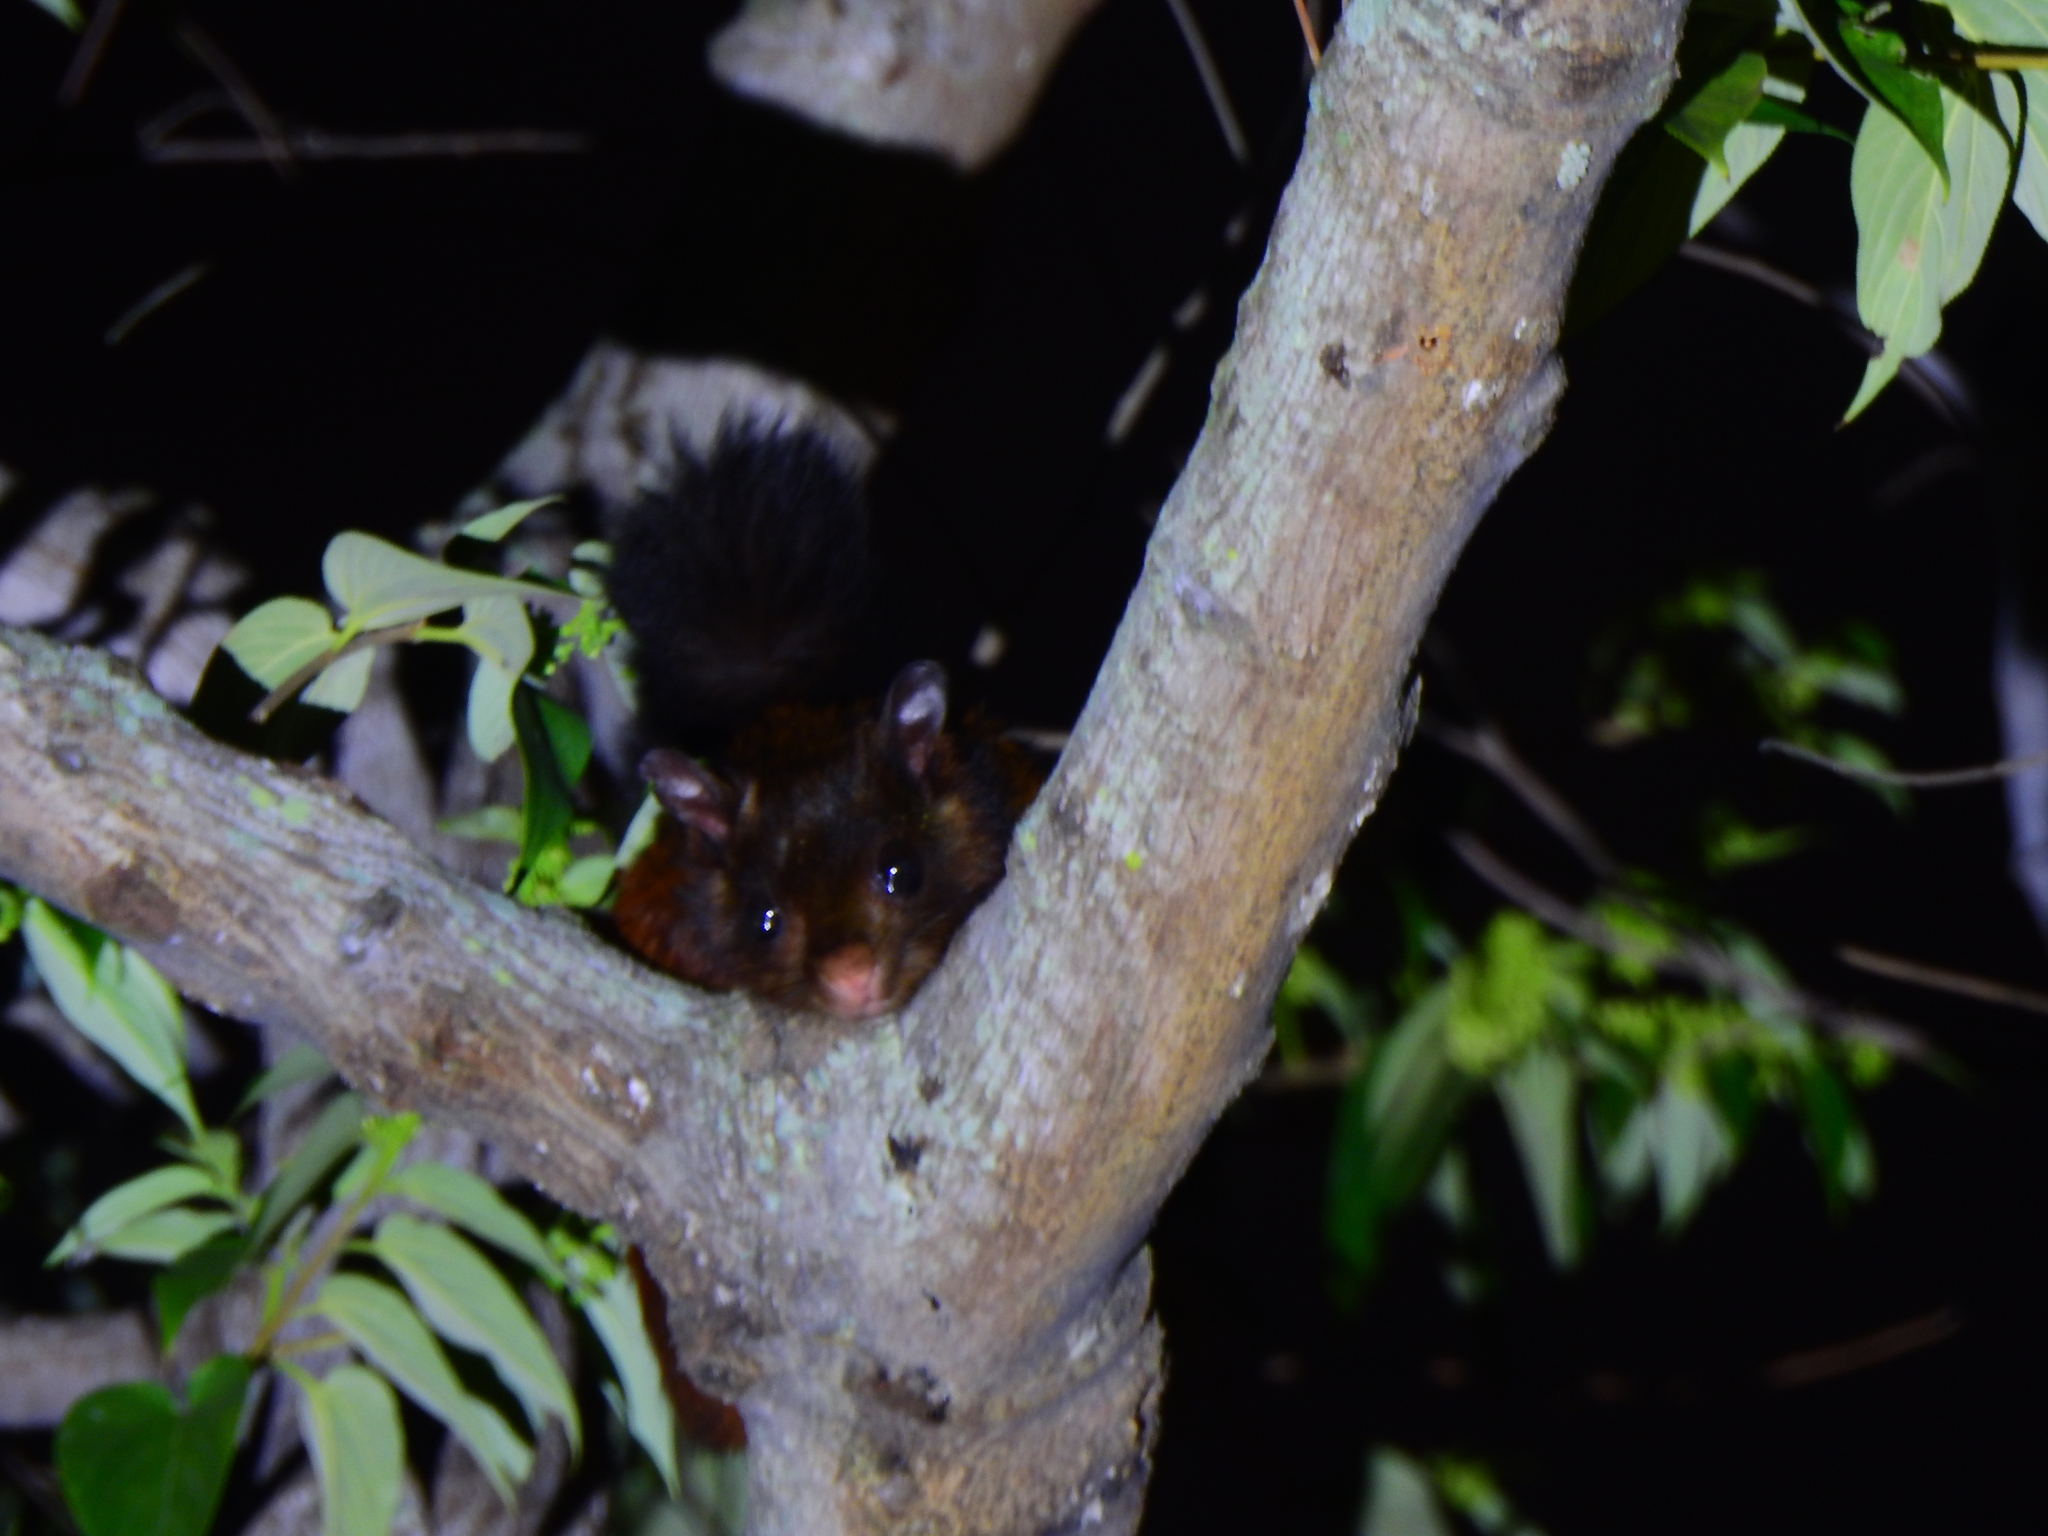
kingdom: Animalia
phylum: Chordata
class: Mammalia
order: Rodentia
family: Sciuridae
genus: Petaurista
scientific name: Petaurista
